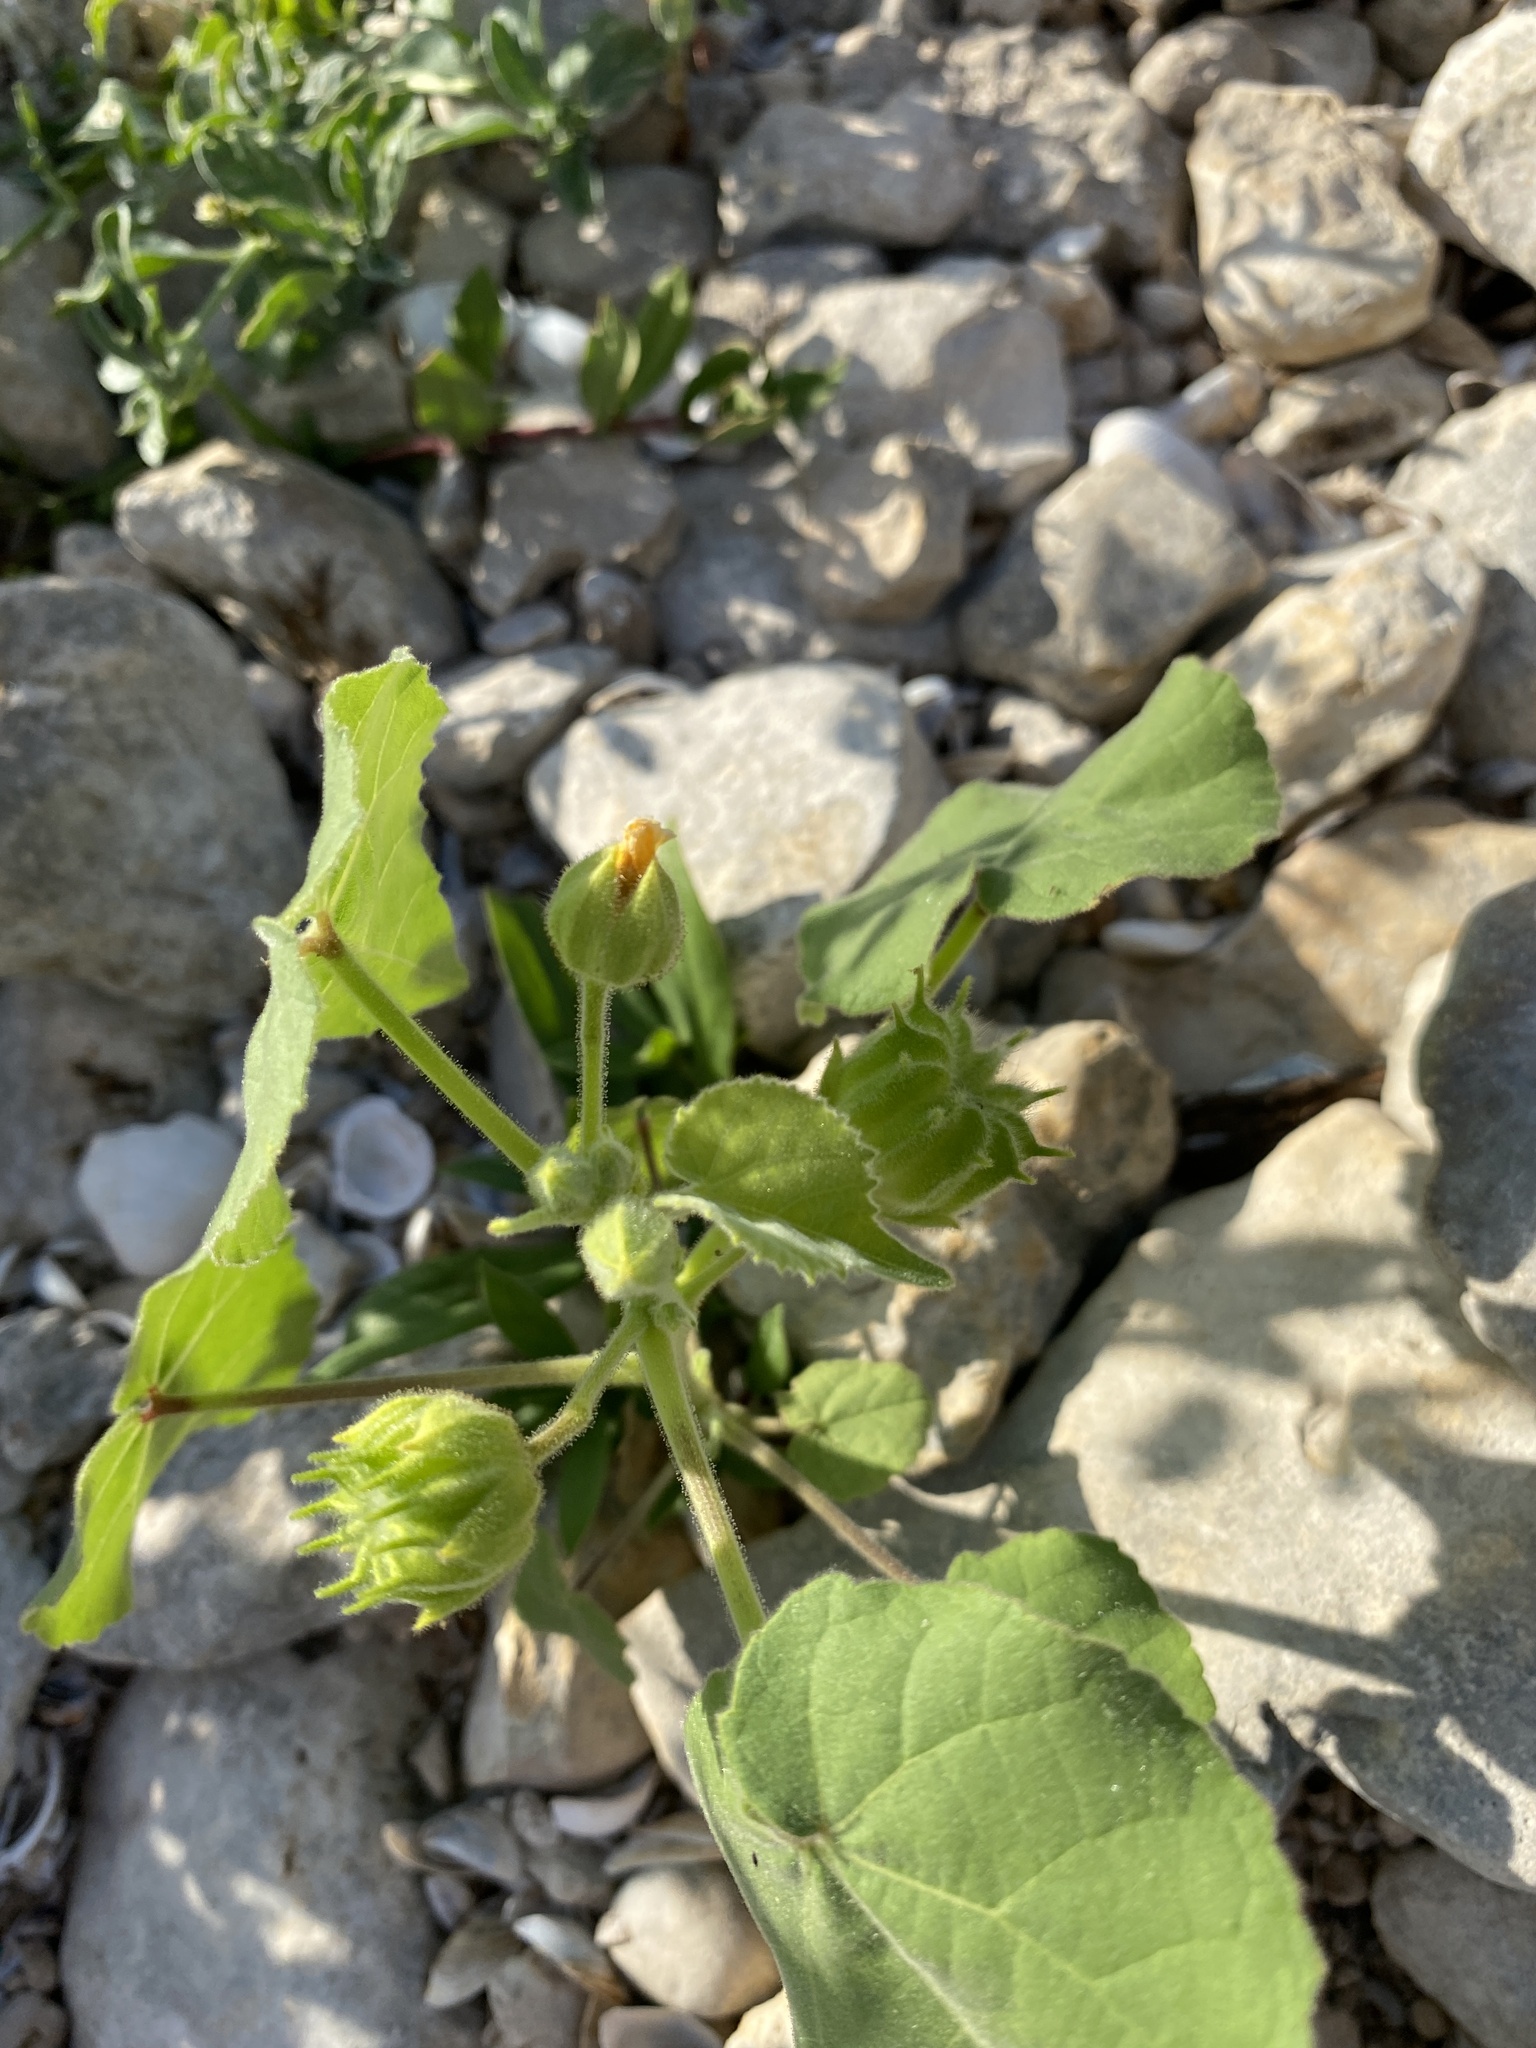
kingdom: Plantae
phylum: Tracheophyta
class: Magnoliopsida
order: Malvales
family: Malvaceae
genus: Abutilon
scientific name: Abutilon theophrasti
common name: Velvetleaf
